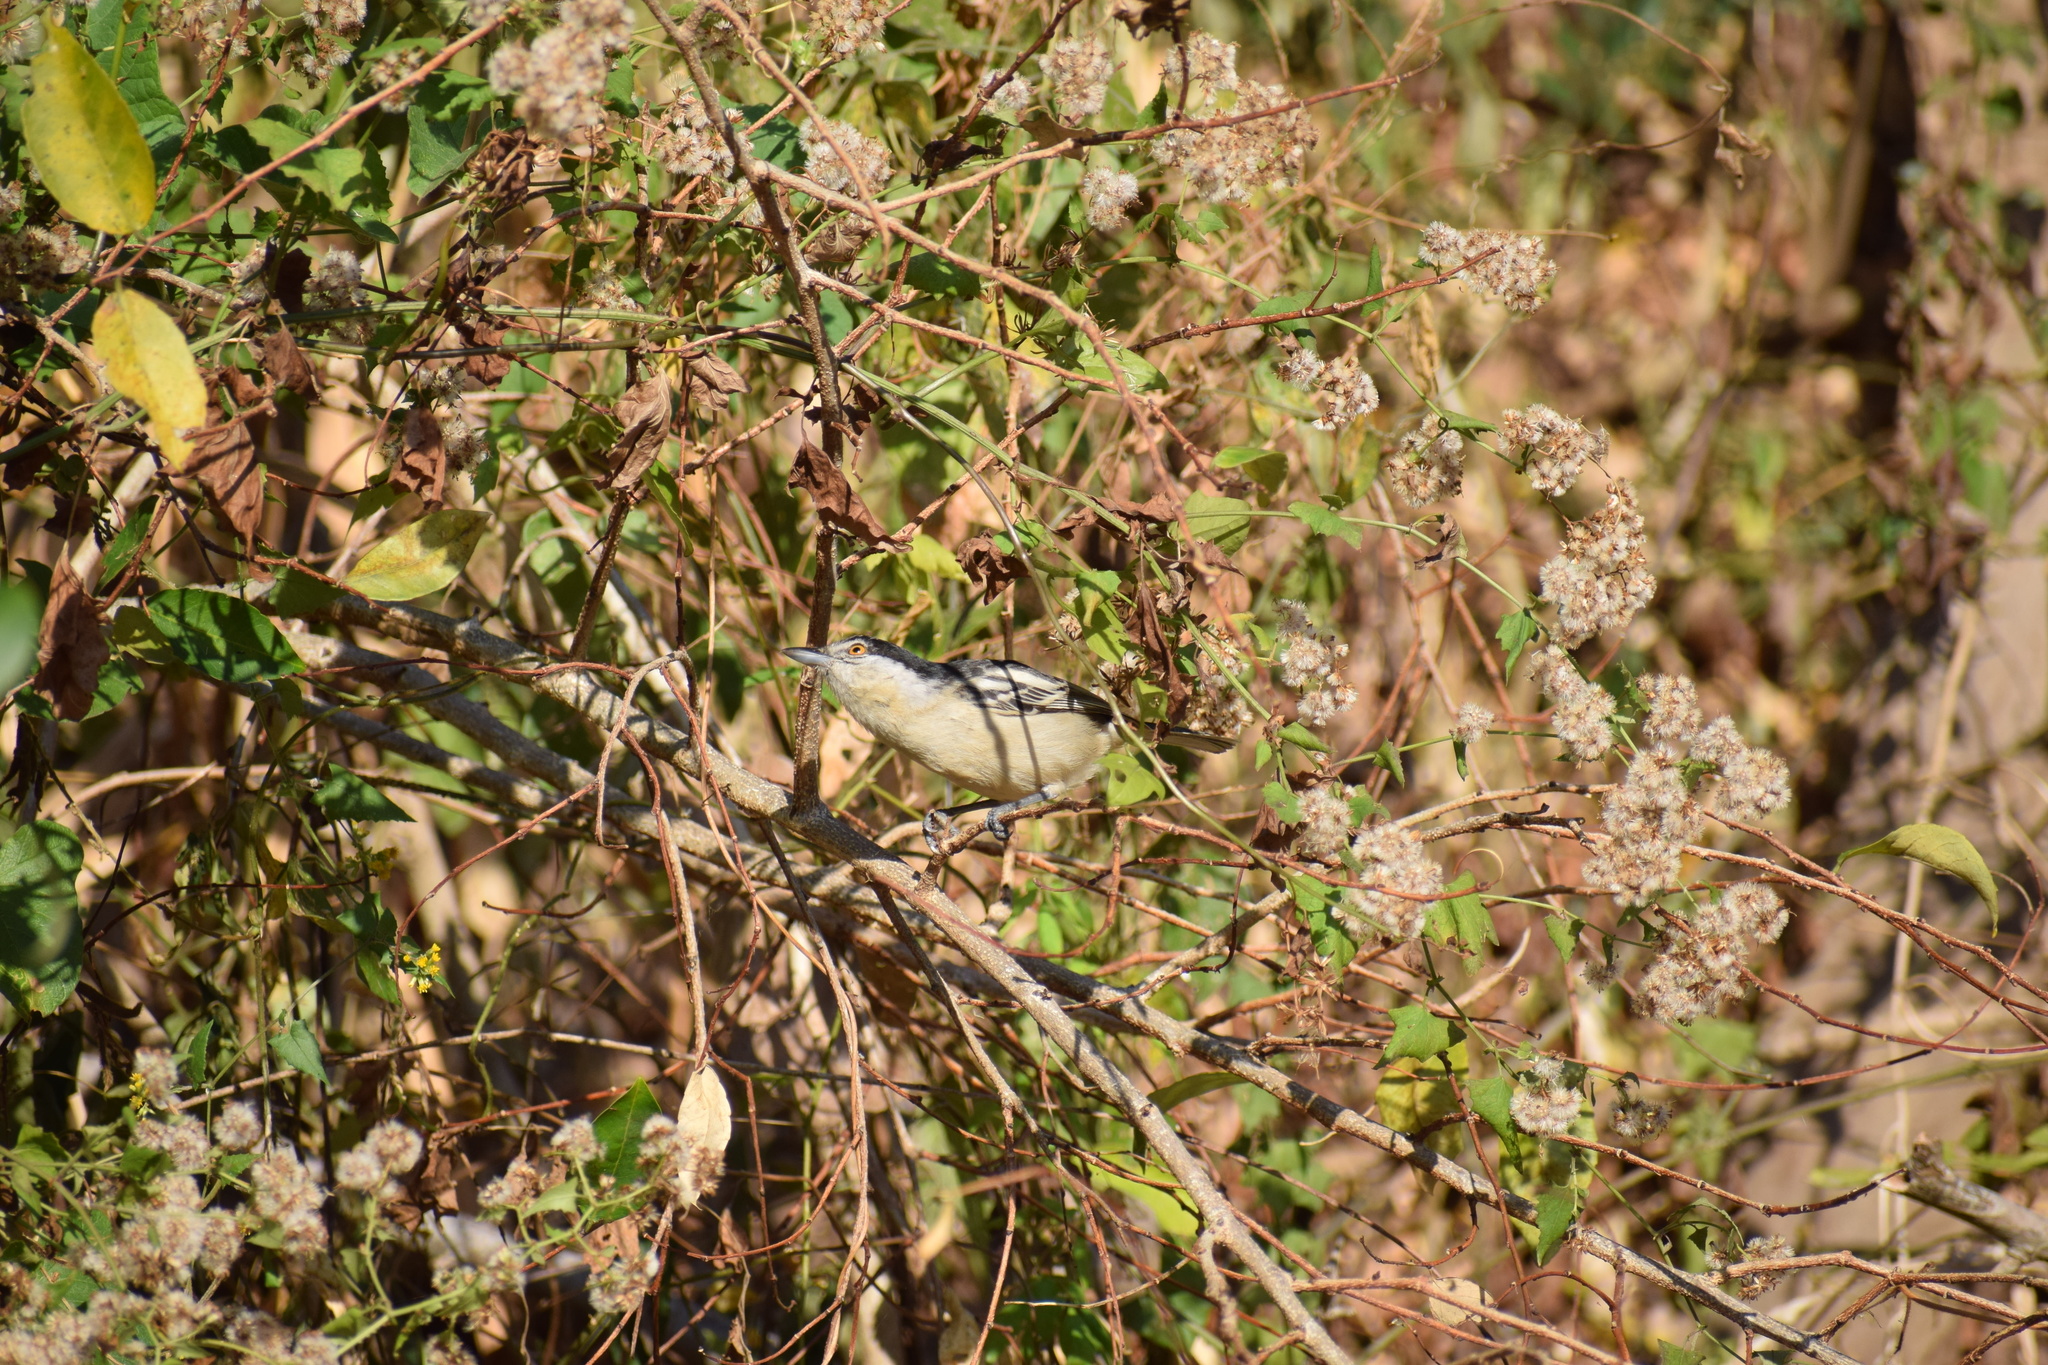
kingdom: Animalia
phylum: Chordata
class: Aves
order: Passeriformes
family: Malaconotidae
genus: Dryoscopus
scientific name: Dryoscopus cubla
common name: Black-backed puffback
